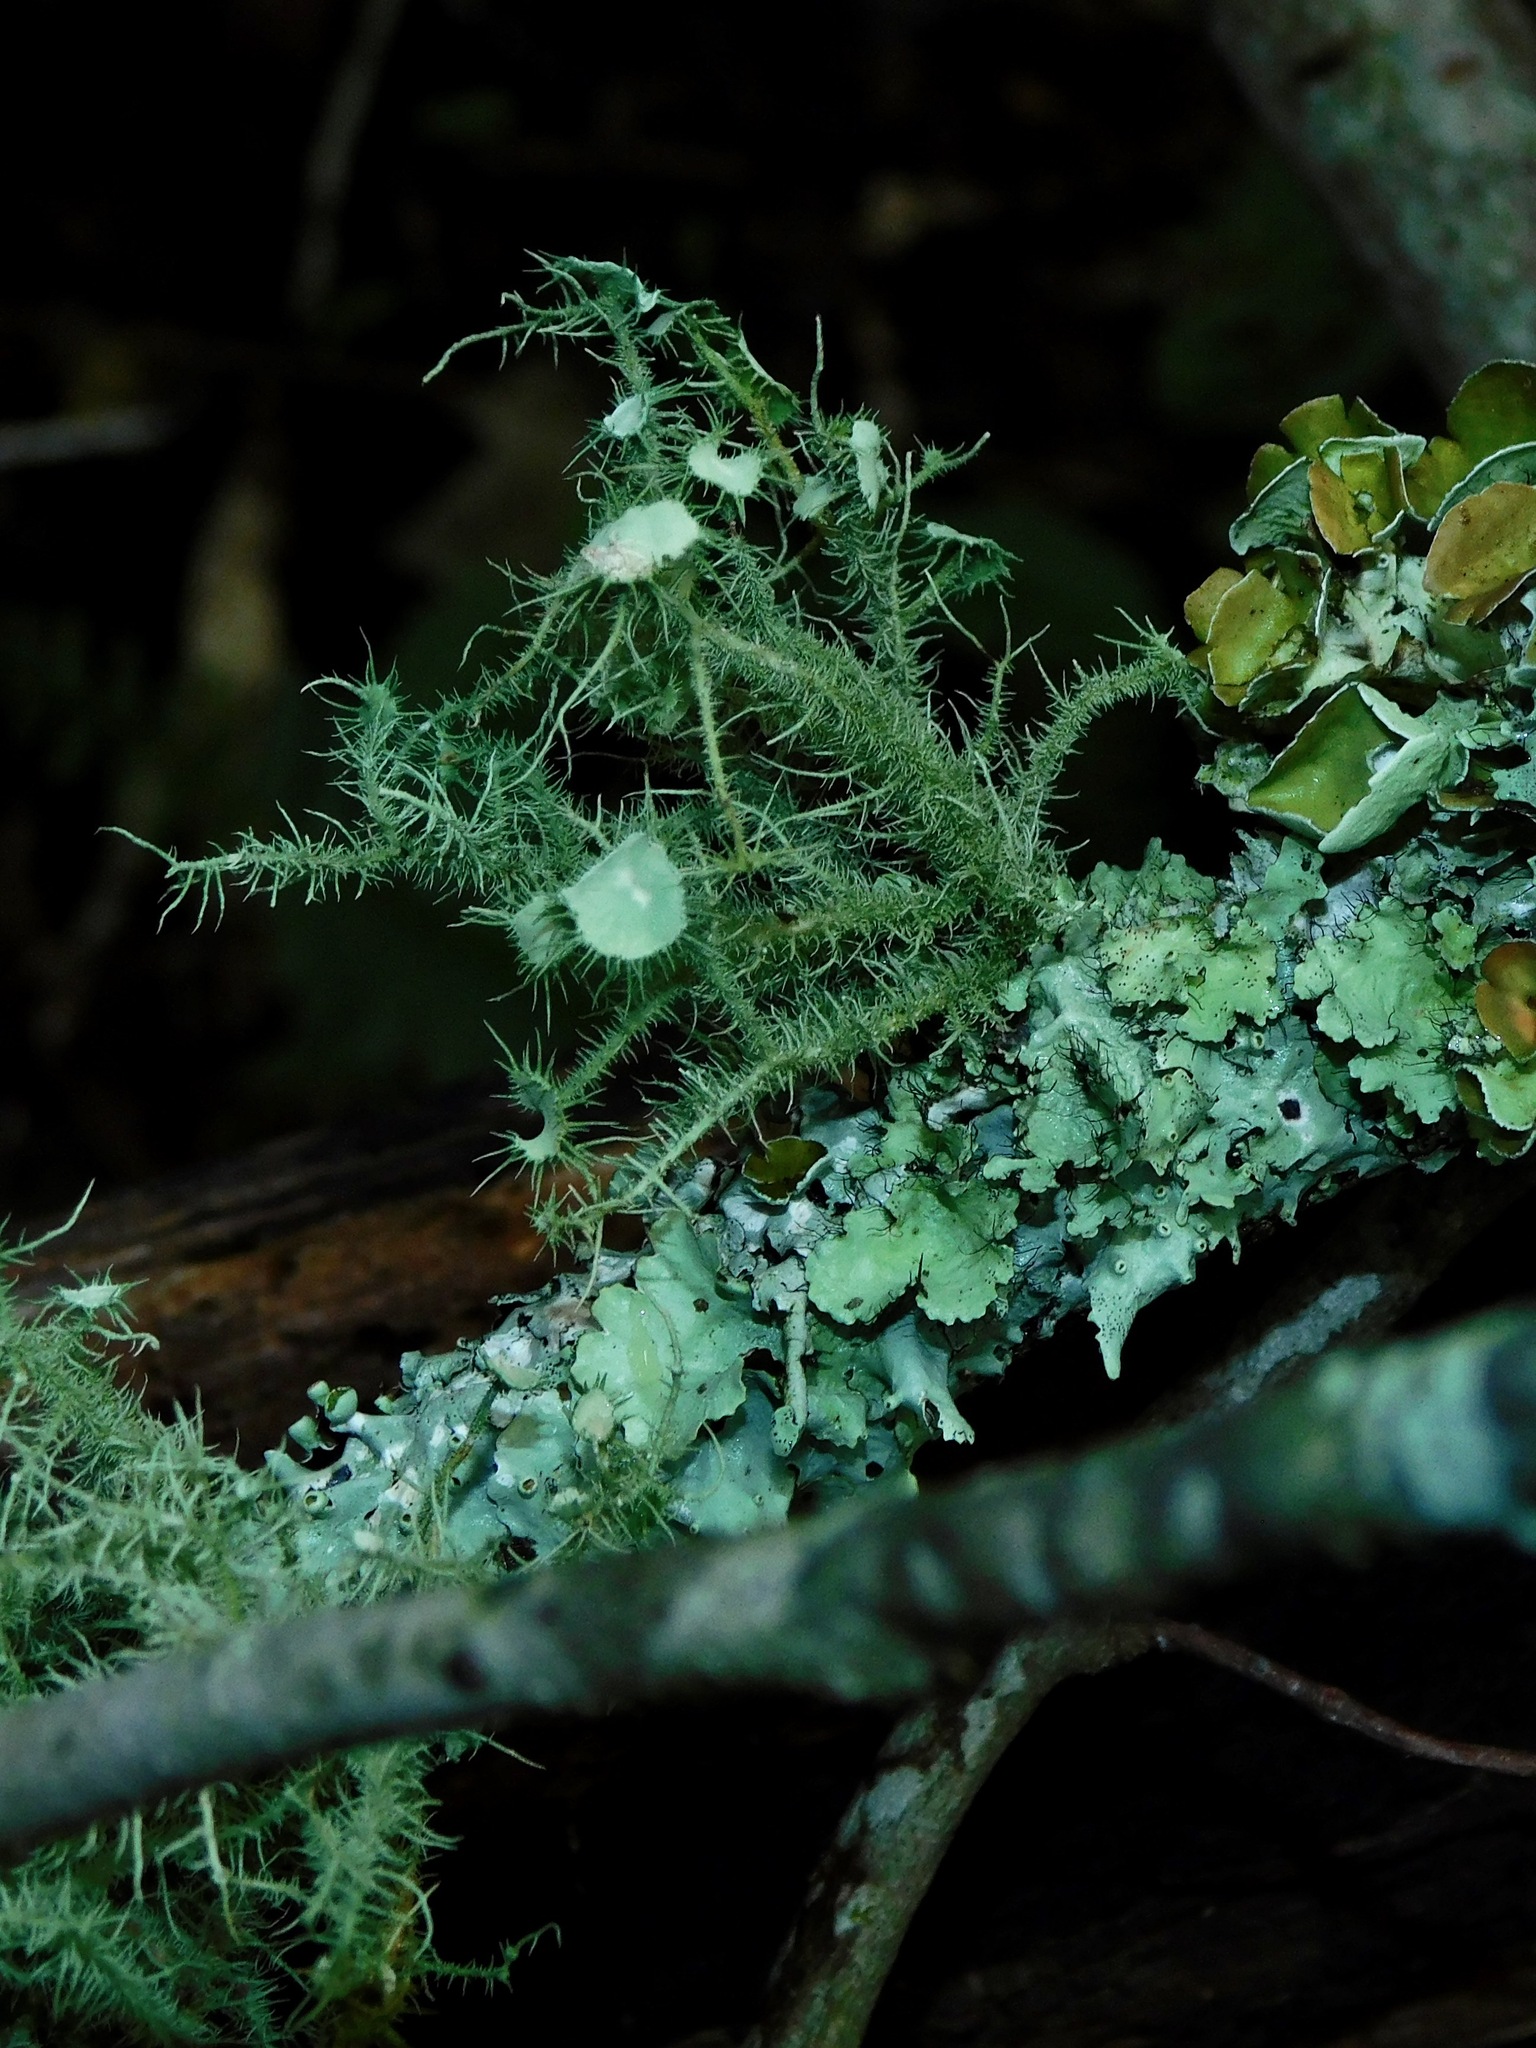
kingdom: Fungi
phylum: Ascomycota
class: Lecanoromycetes
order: Lecanorales
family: Parmeliaceae
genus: Usnea
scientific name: Usnea strigosa
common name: Bushy beard lichen
